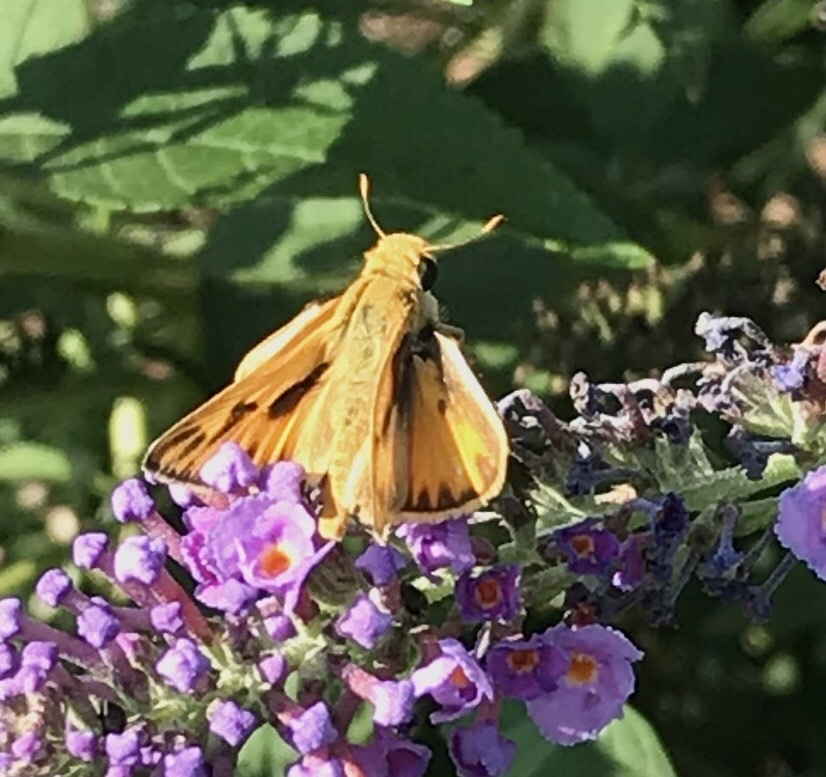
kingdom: Animalia
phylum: Arthropoda
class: Insecta
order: Lepidoptera
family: Hesperiidae
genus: Hylephila
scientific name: Hylephila phyleus
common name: Fiery skipper
